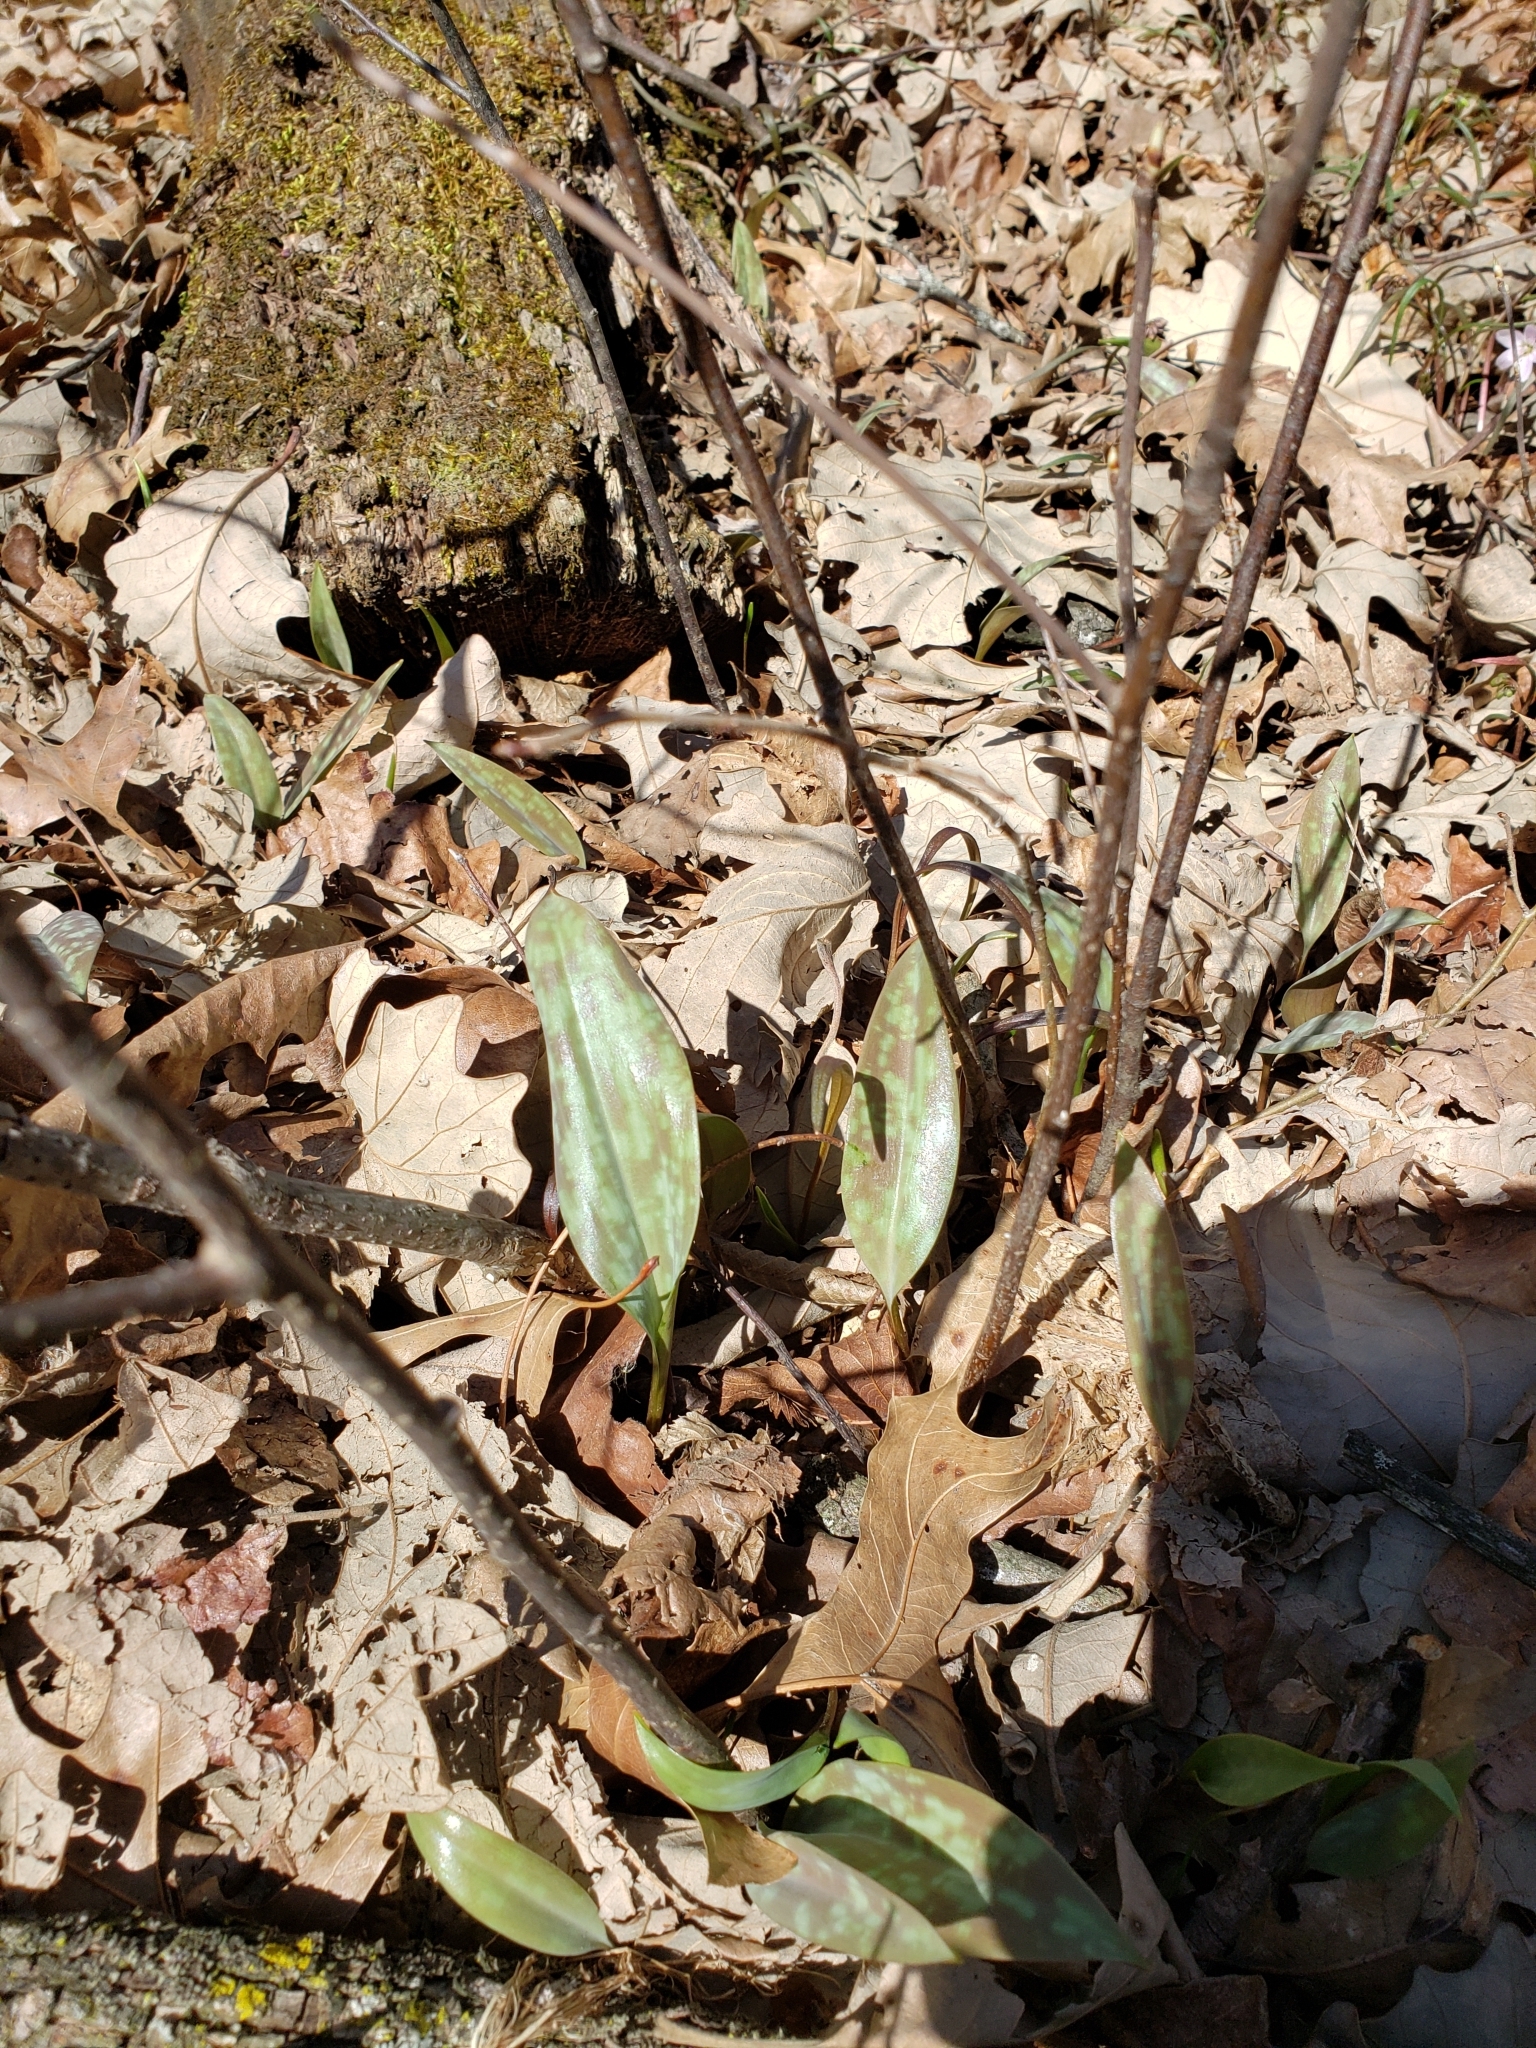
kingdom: Plantae
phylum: Tracheophyta
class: Liliopsida
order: Liliales
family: Liliaceae
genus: Erythronium
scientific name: Erythronium americanum
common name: Yellow adder's-tongue
